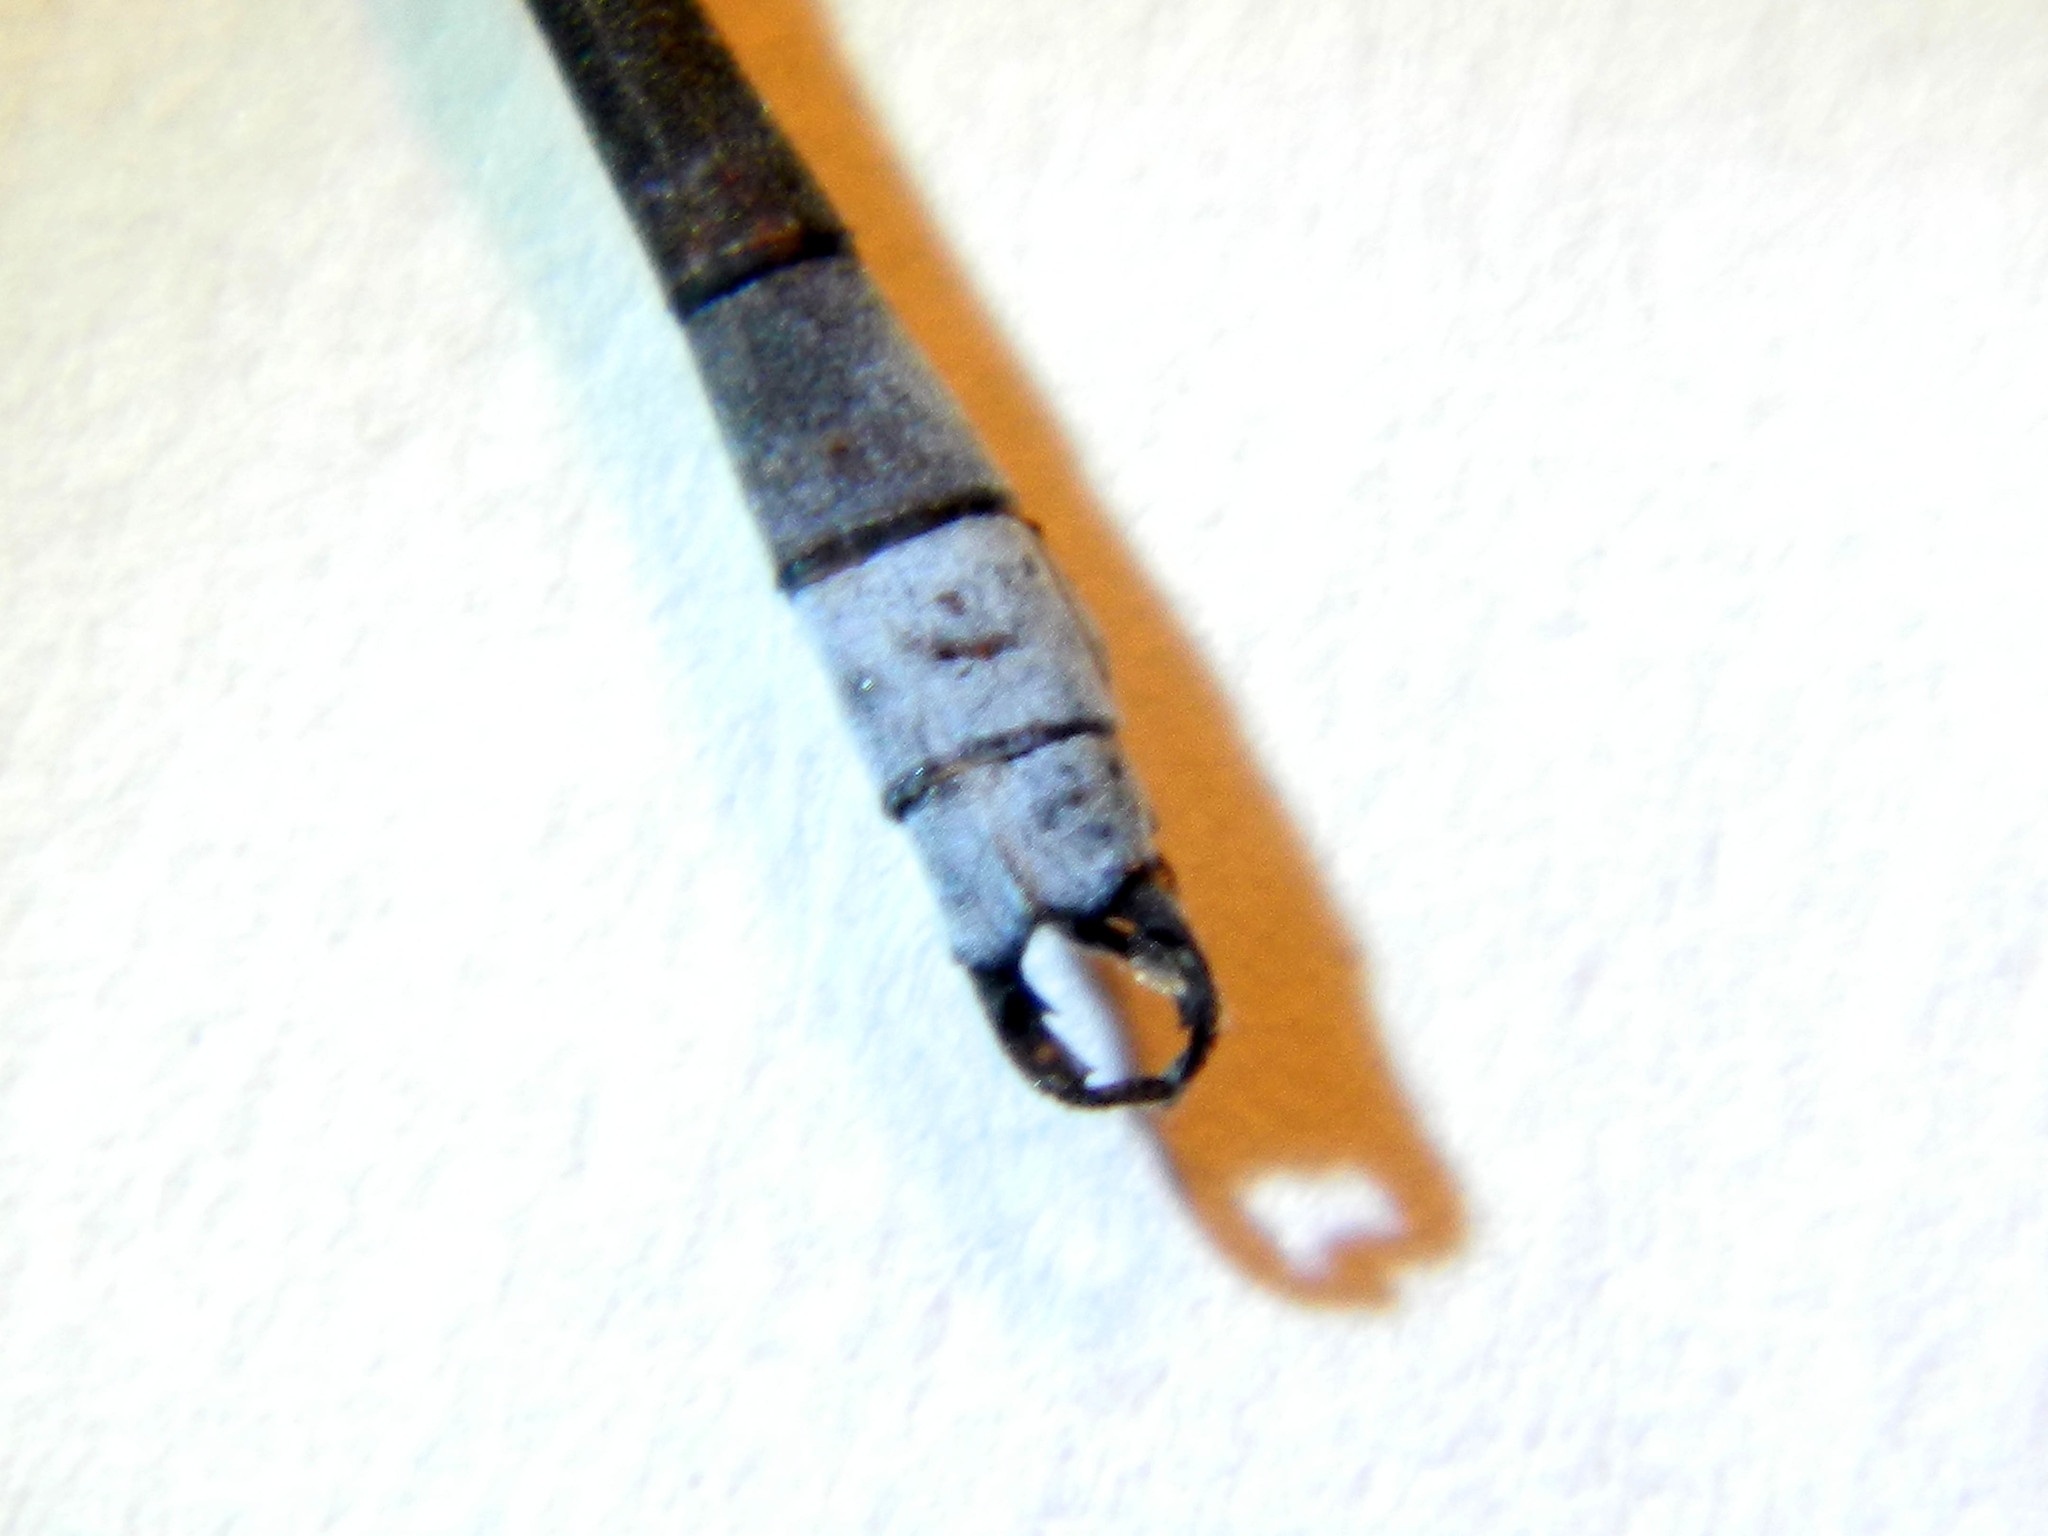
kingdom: Animalia
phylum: Arthropoda
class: Insecta
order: Odonata
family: Lestidae
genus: Lestes
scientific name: Lestes disjunctus
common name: Northern spreadwing
